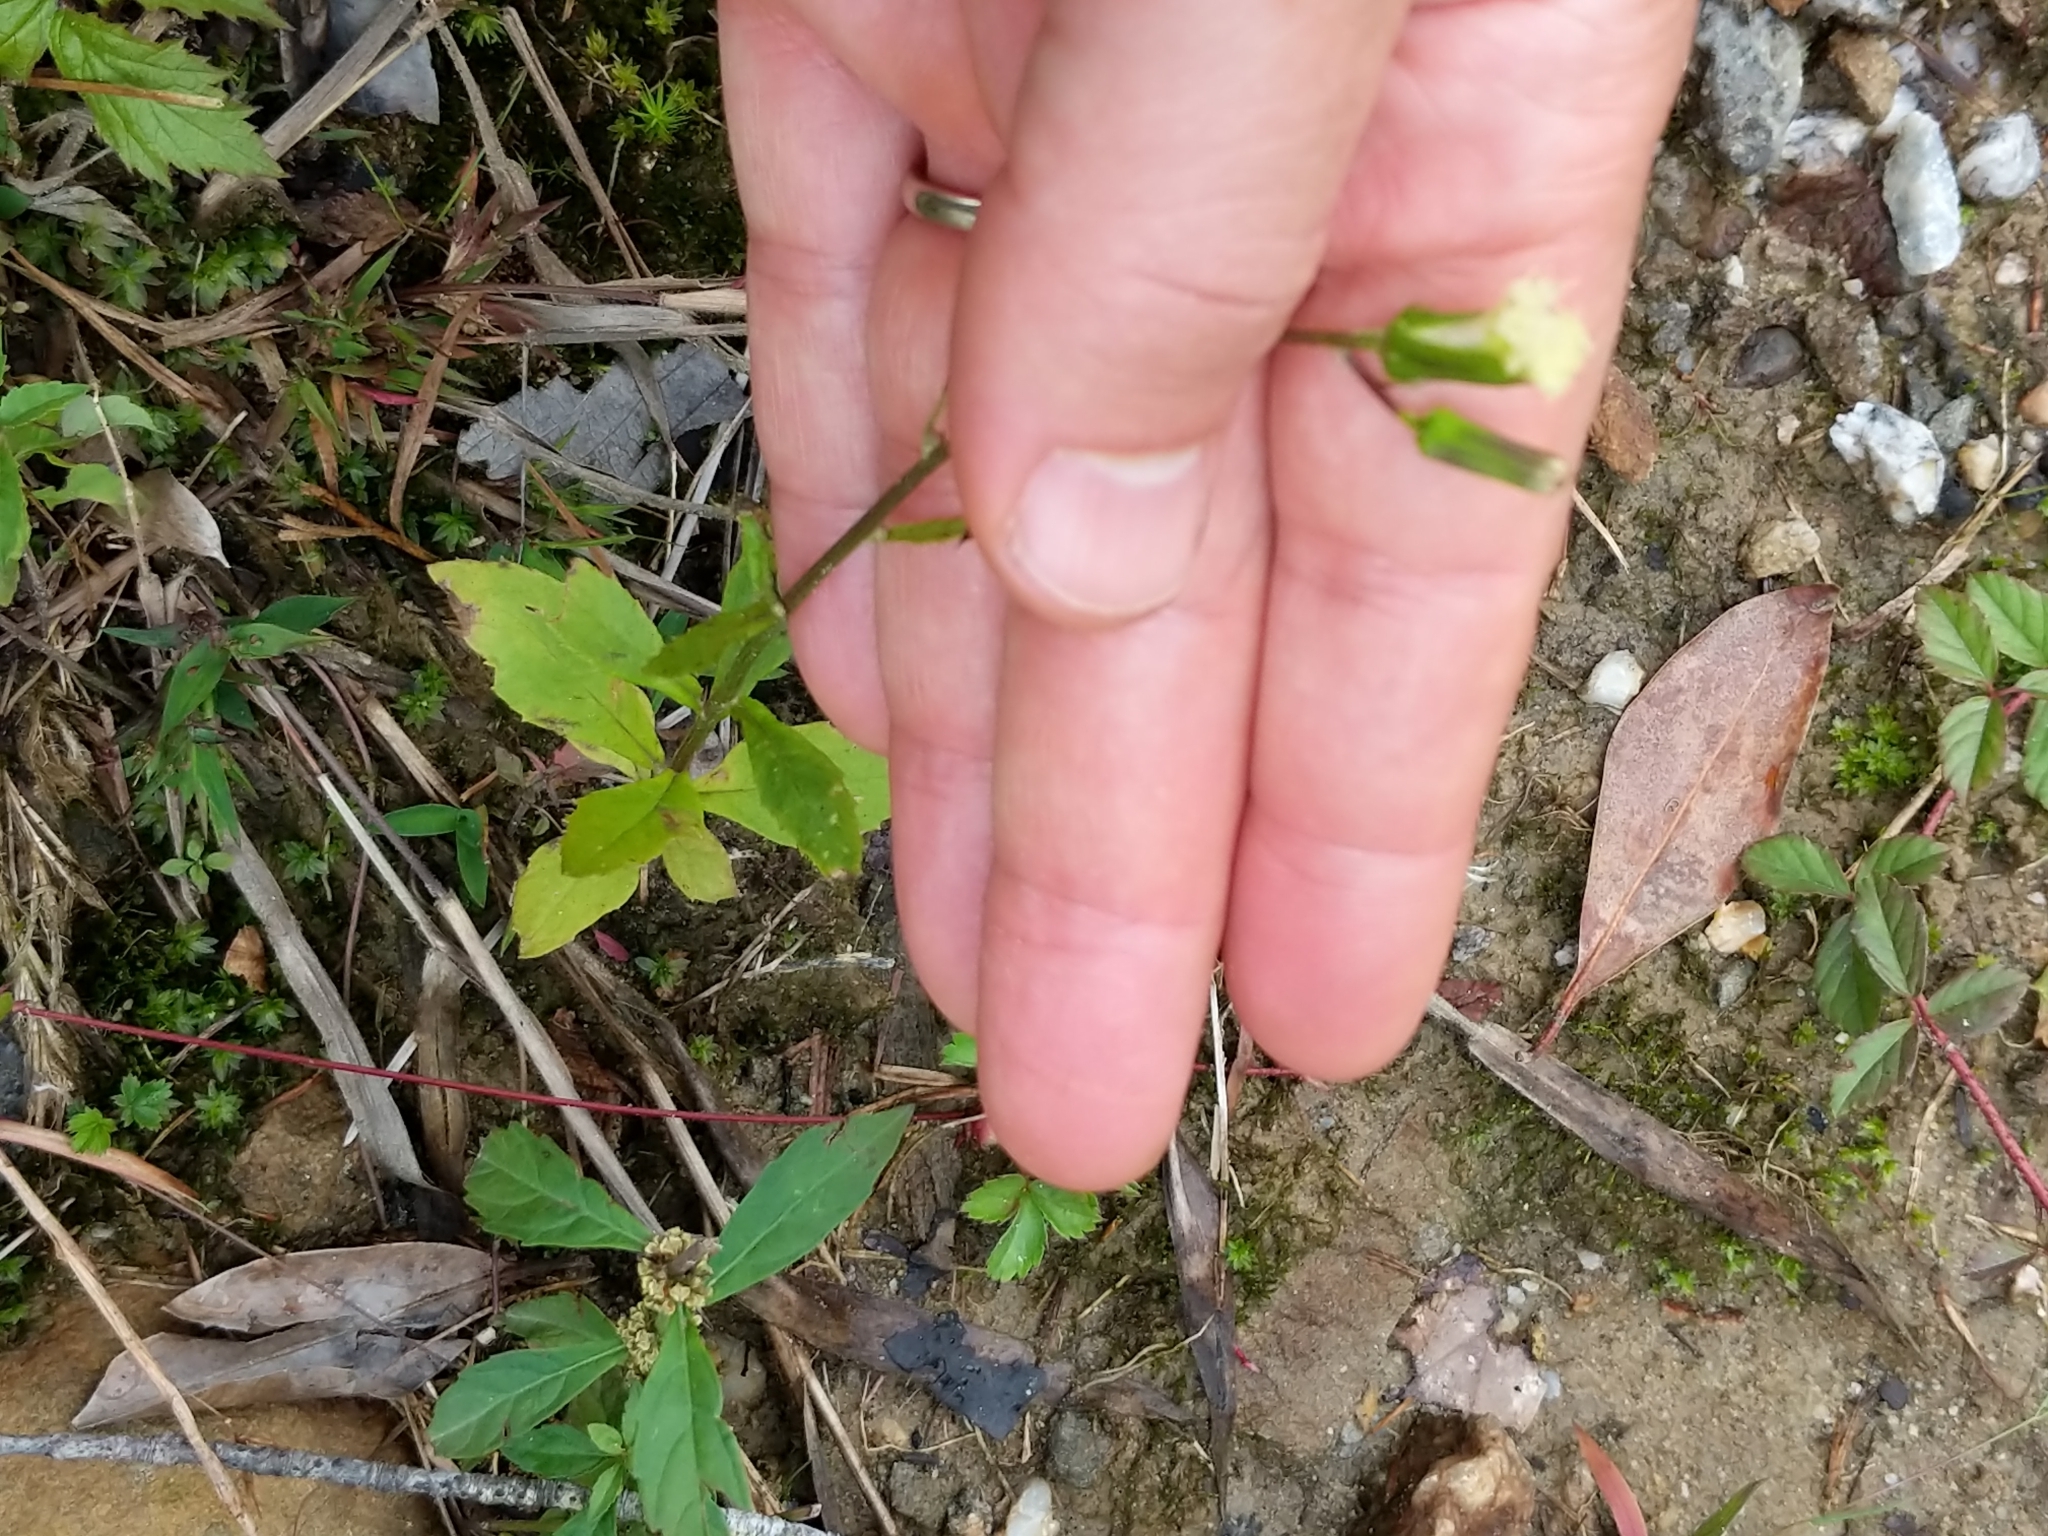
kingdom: Plantae
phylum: Tracheophyta
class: Magnoliopsida
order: Asterales
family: Asteraceae
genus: Erechtites
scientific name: Erechtites hieraciifolius
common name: American burnweed
